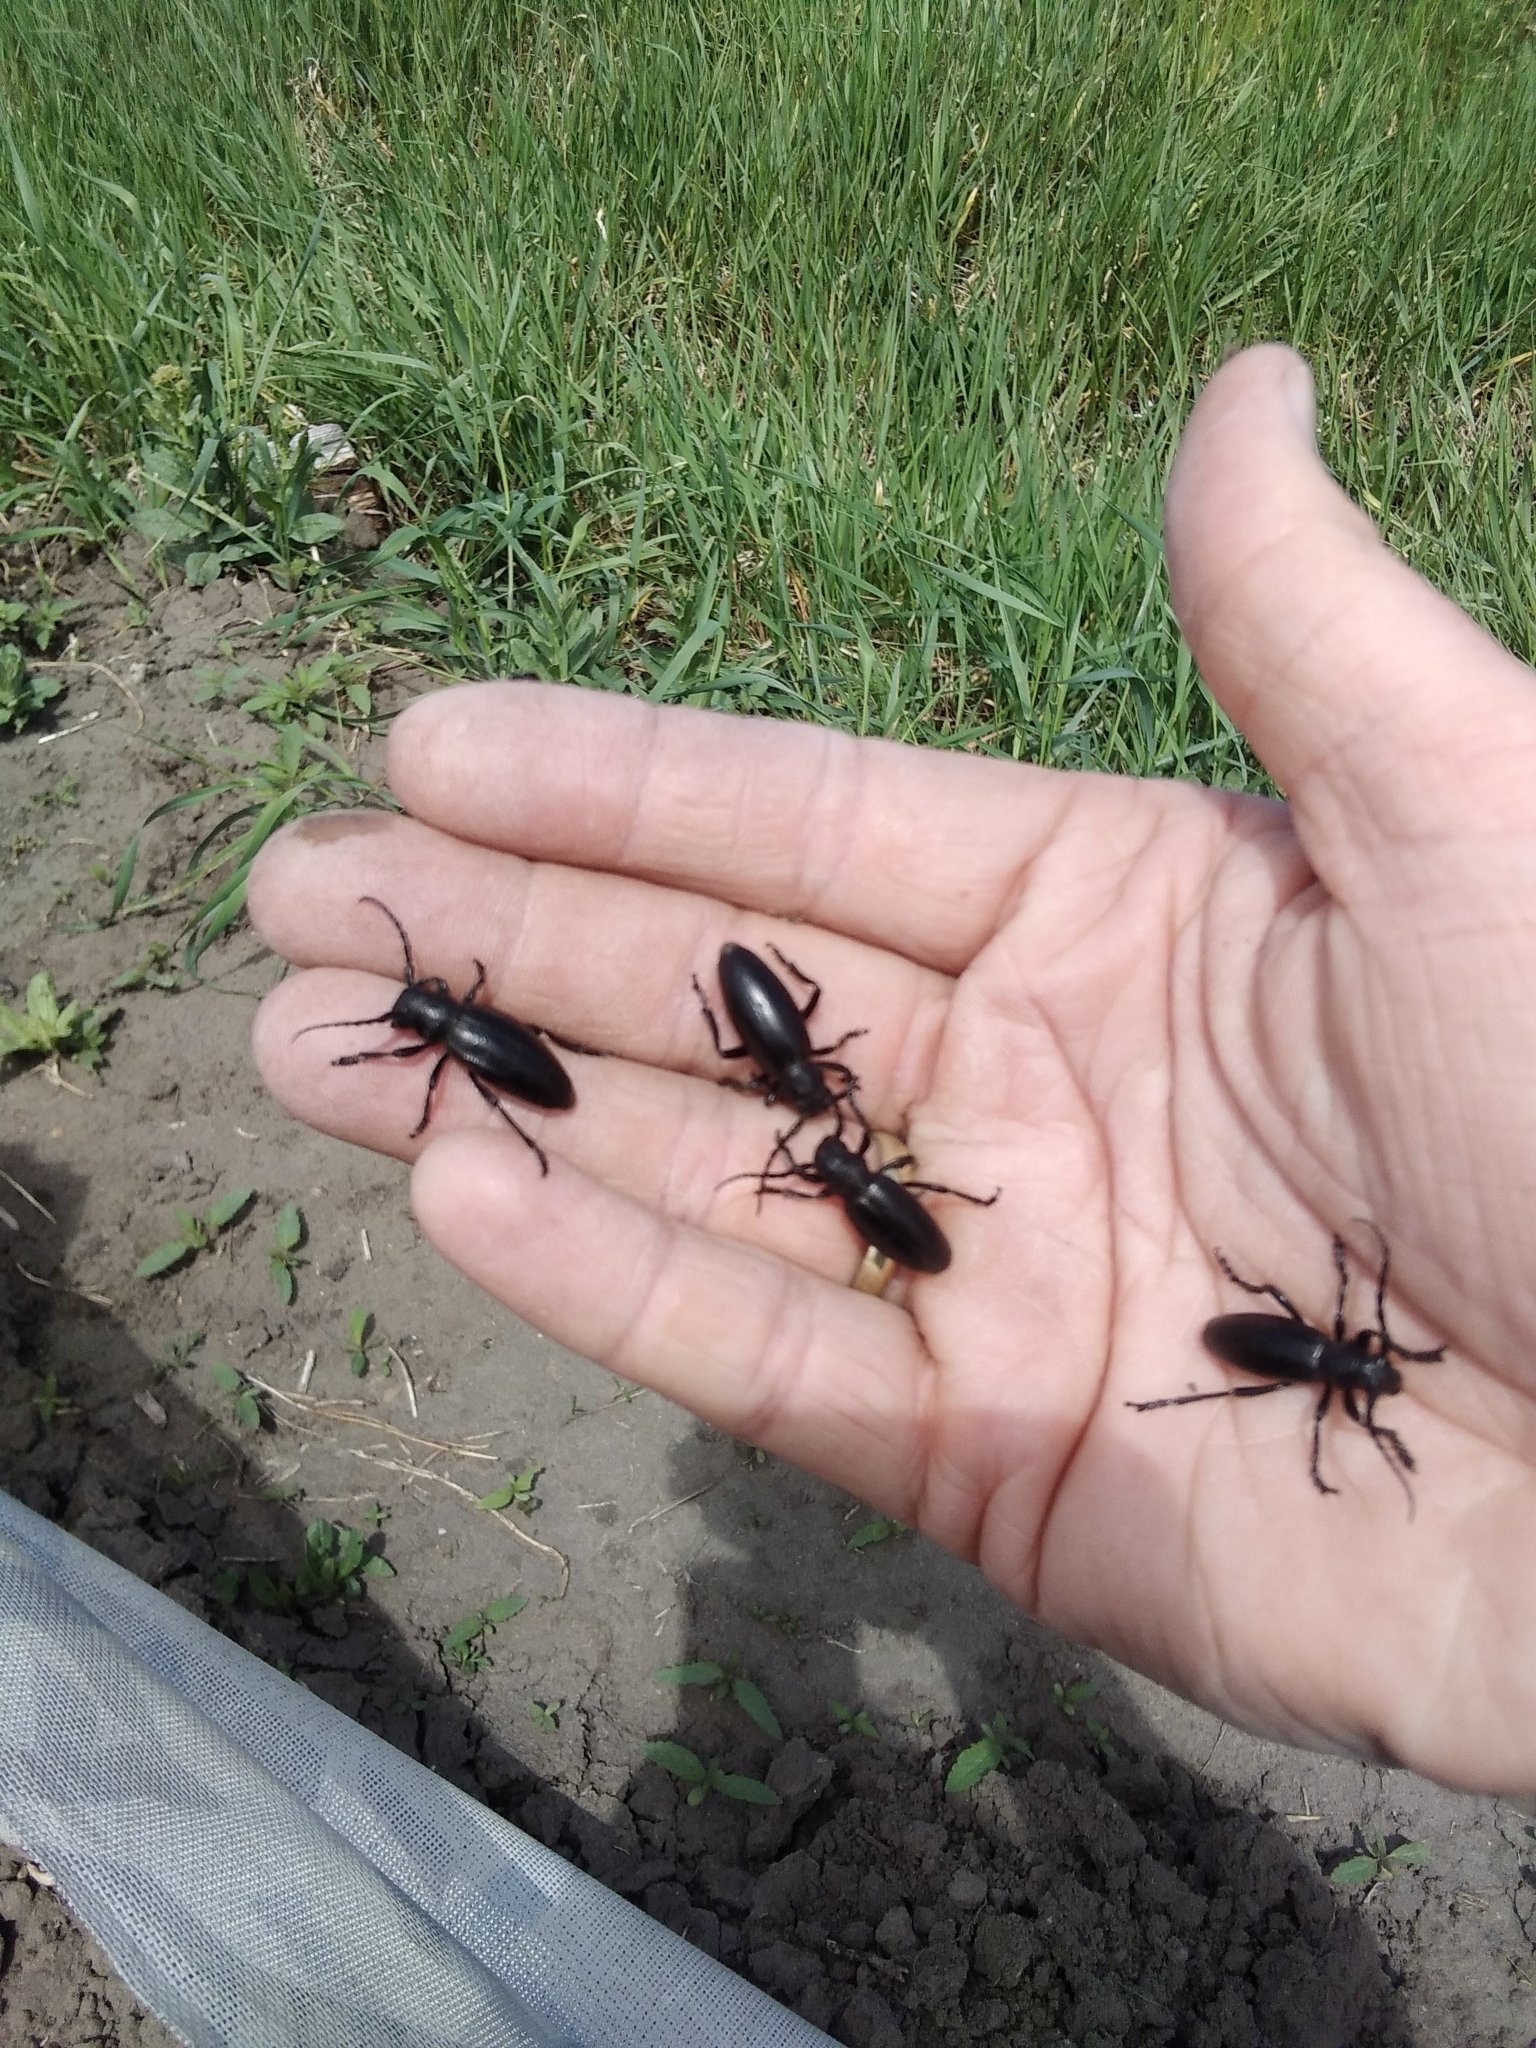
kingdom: Animalia
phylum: Arthropoda
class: Insecta
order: Coleoptera
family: Cerambycidae
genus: Dorcadion
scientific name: Dorcadion aethiops
